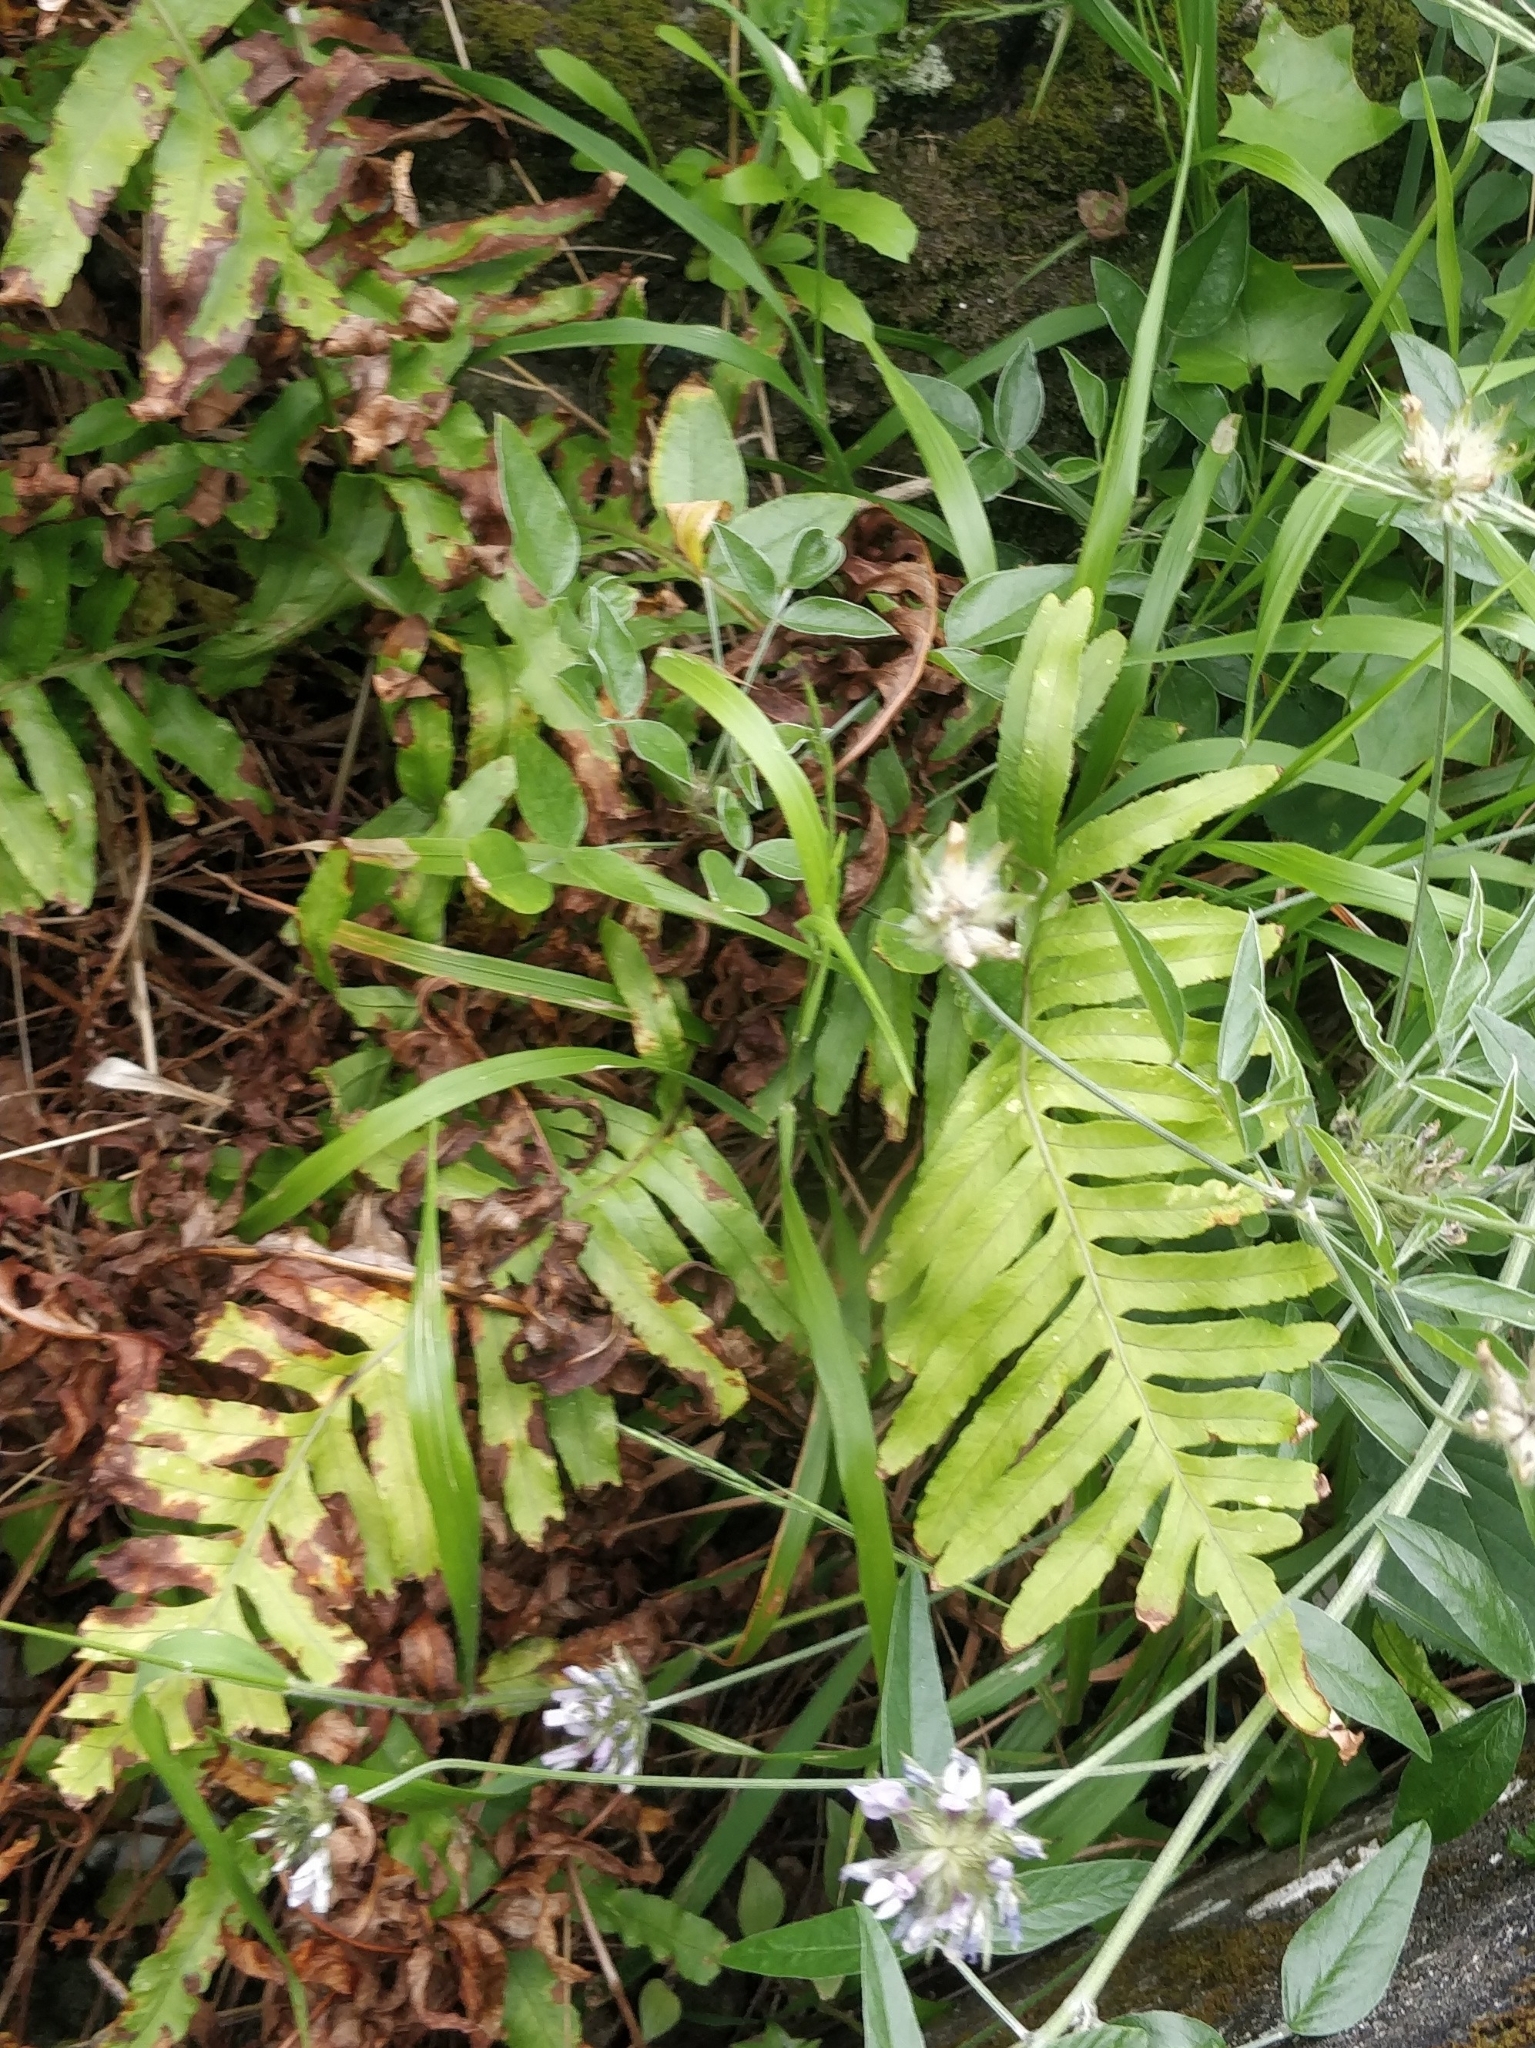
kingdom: Plantae
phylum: Tracheophyta
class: Polypodiopsida
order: Polypodiales
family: Polypodiaceae
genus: Polypodium
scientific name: Polypodium macaronesicum
